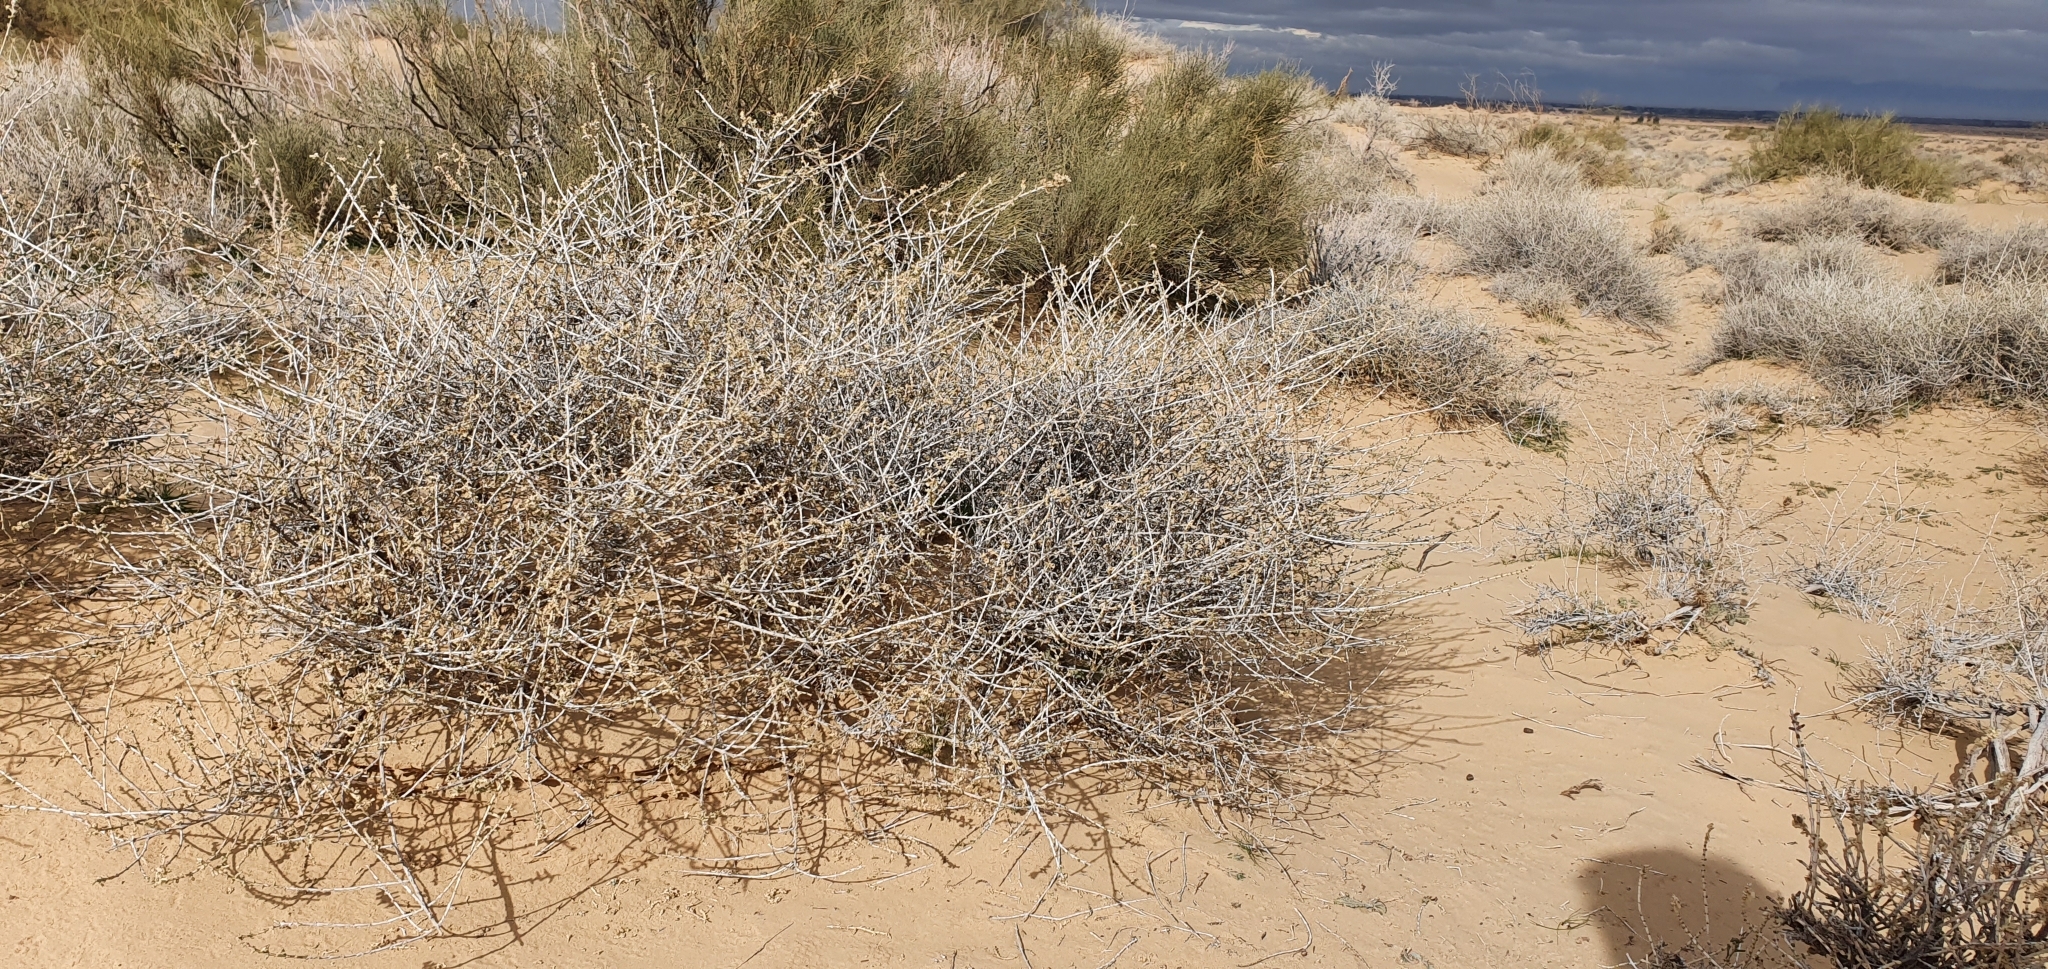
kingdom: Plantae
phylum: Tracheophyta
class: Magnoliopsida
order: Caryophyllales
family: Amaranthaceae
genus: Haloxylon
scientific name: Haloxylon schmittianum
